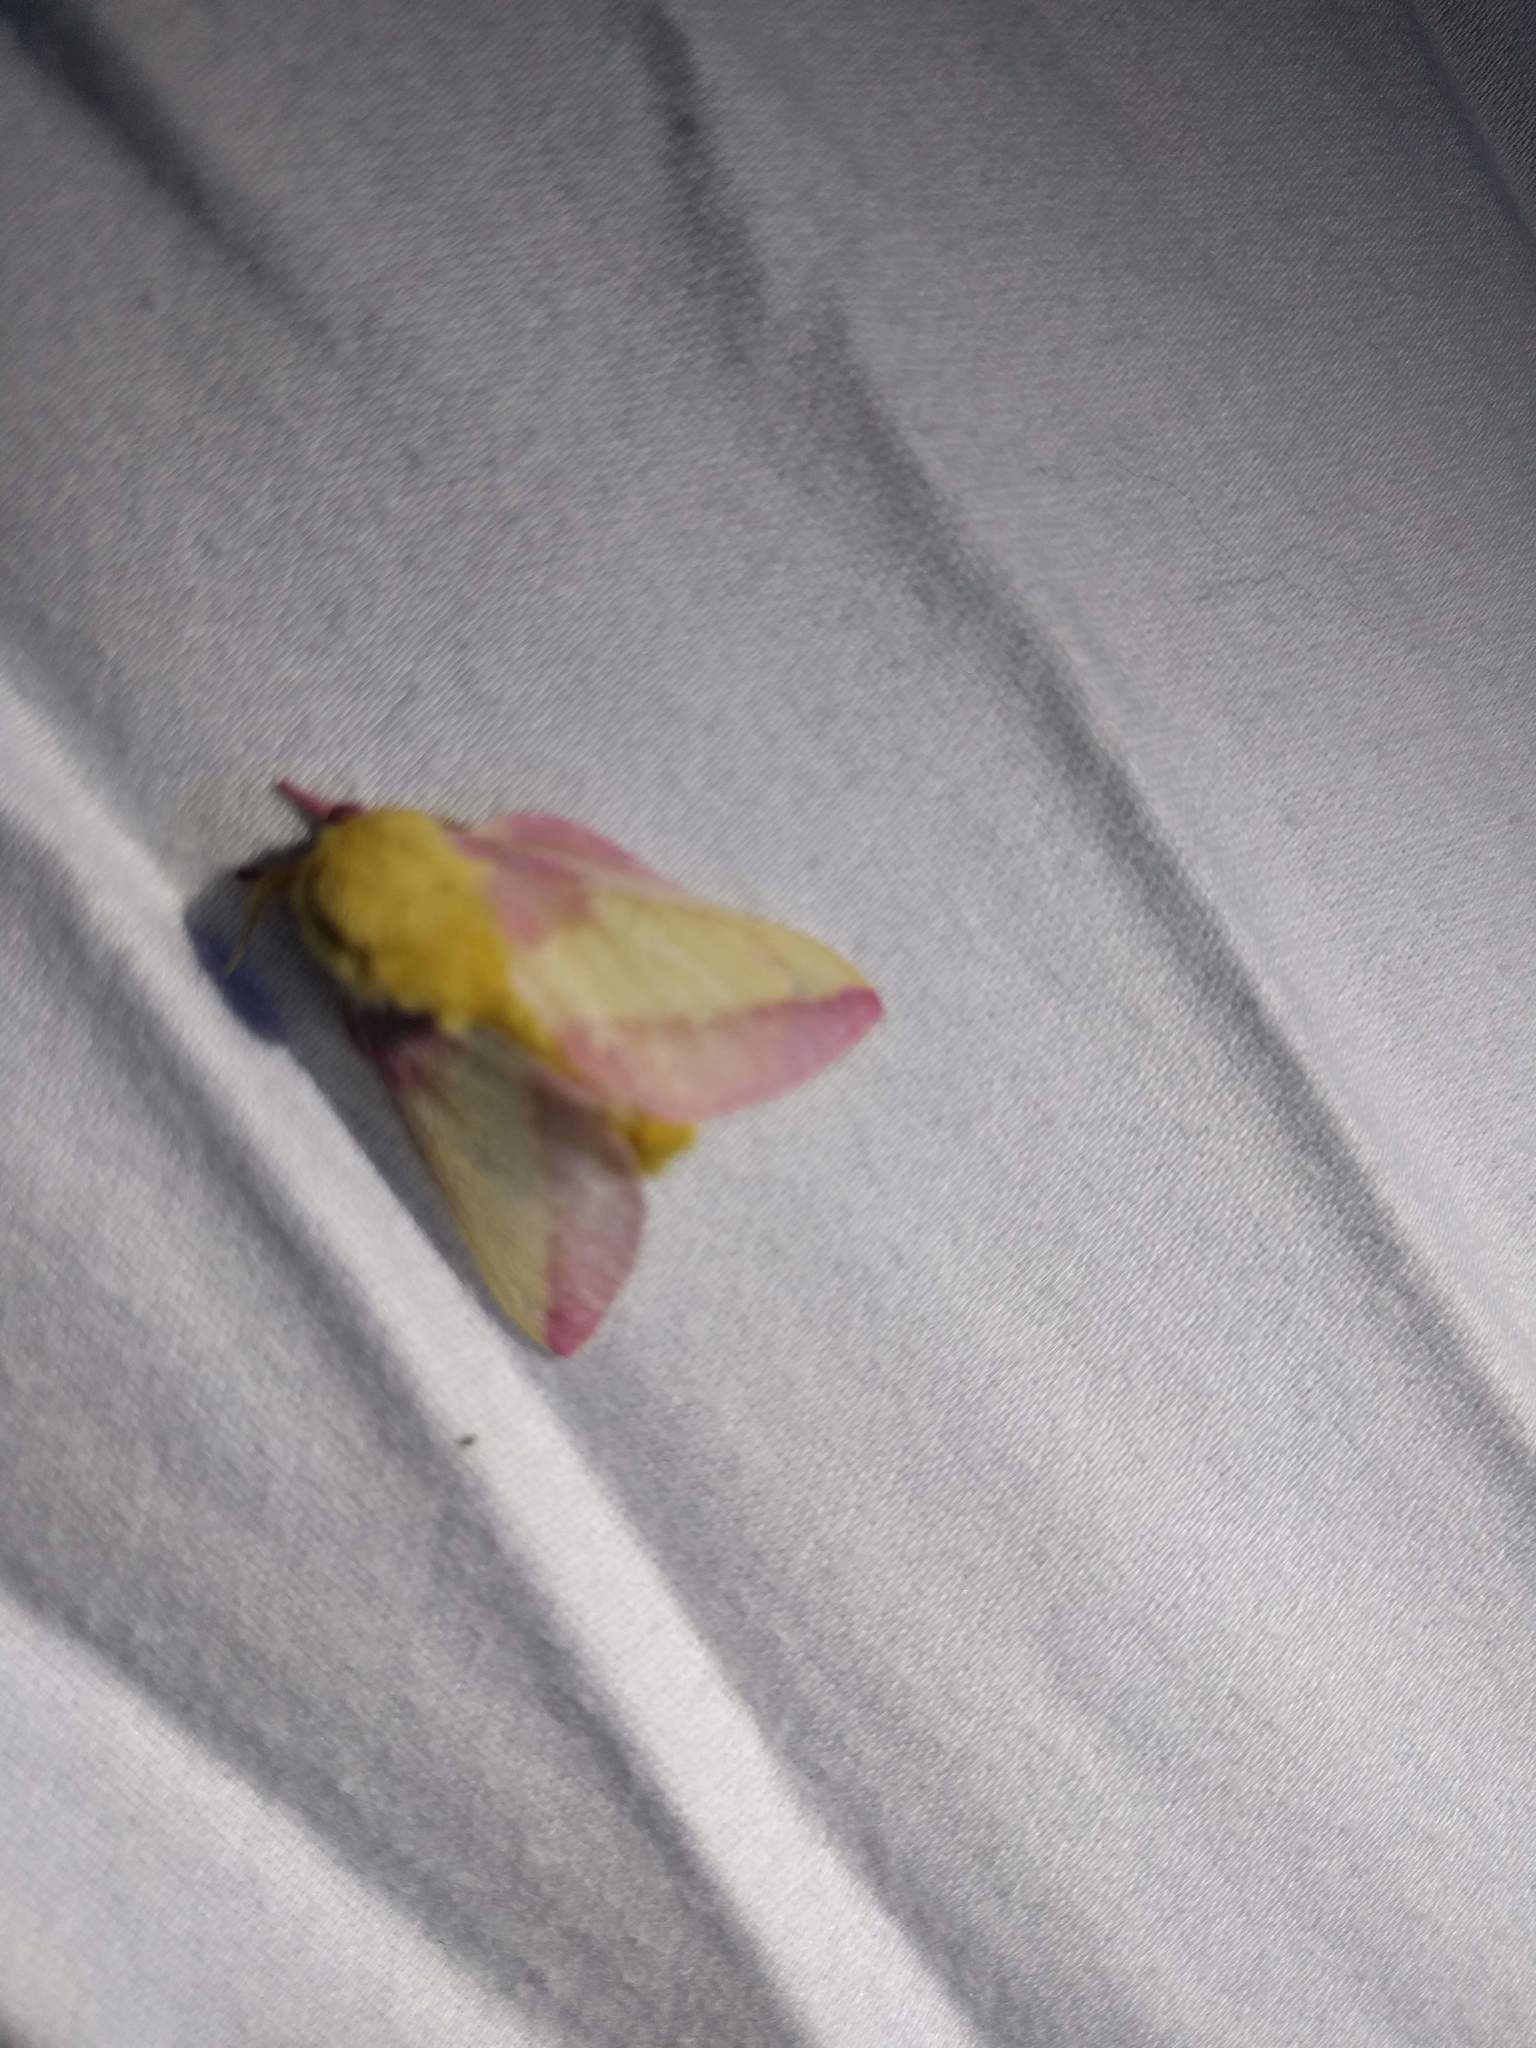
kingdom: Animalia
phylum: Arthropoda
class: Insecta
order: Lepidoptera
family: Saturniidae
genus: Dryocampa
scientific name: Dryocampa rubicunda
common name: Rosy maple moth
